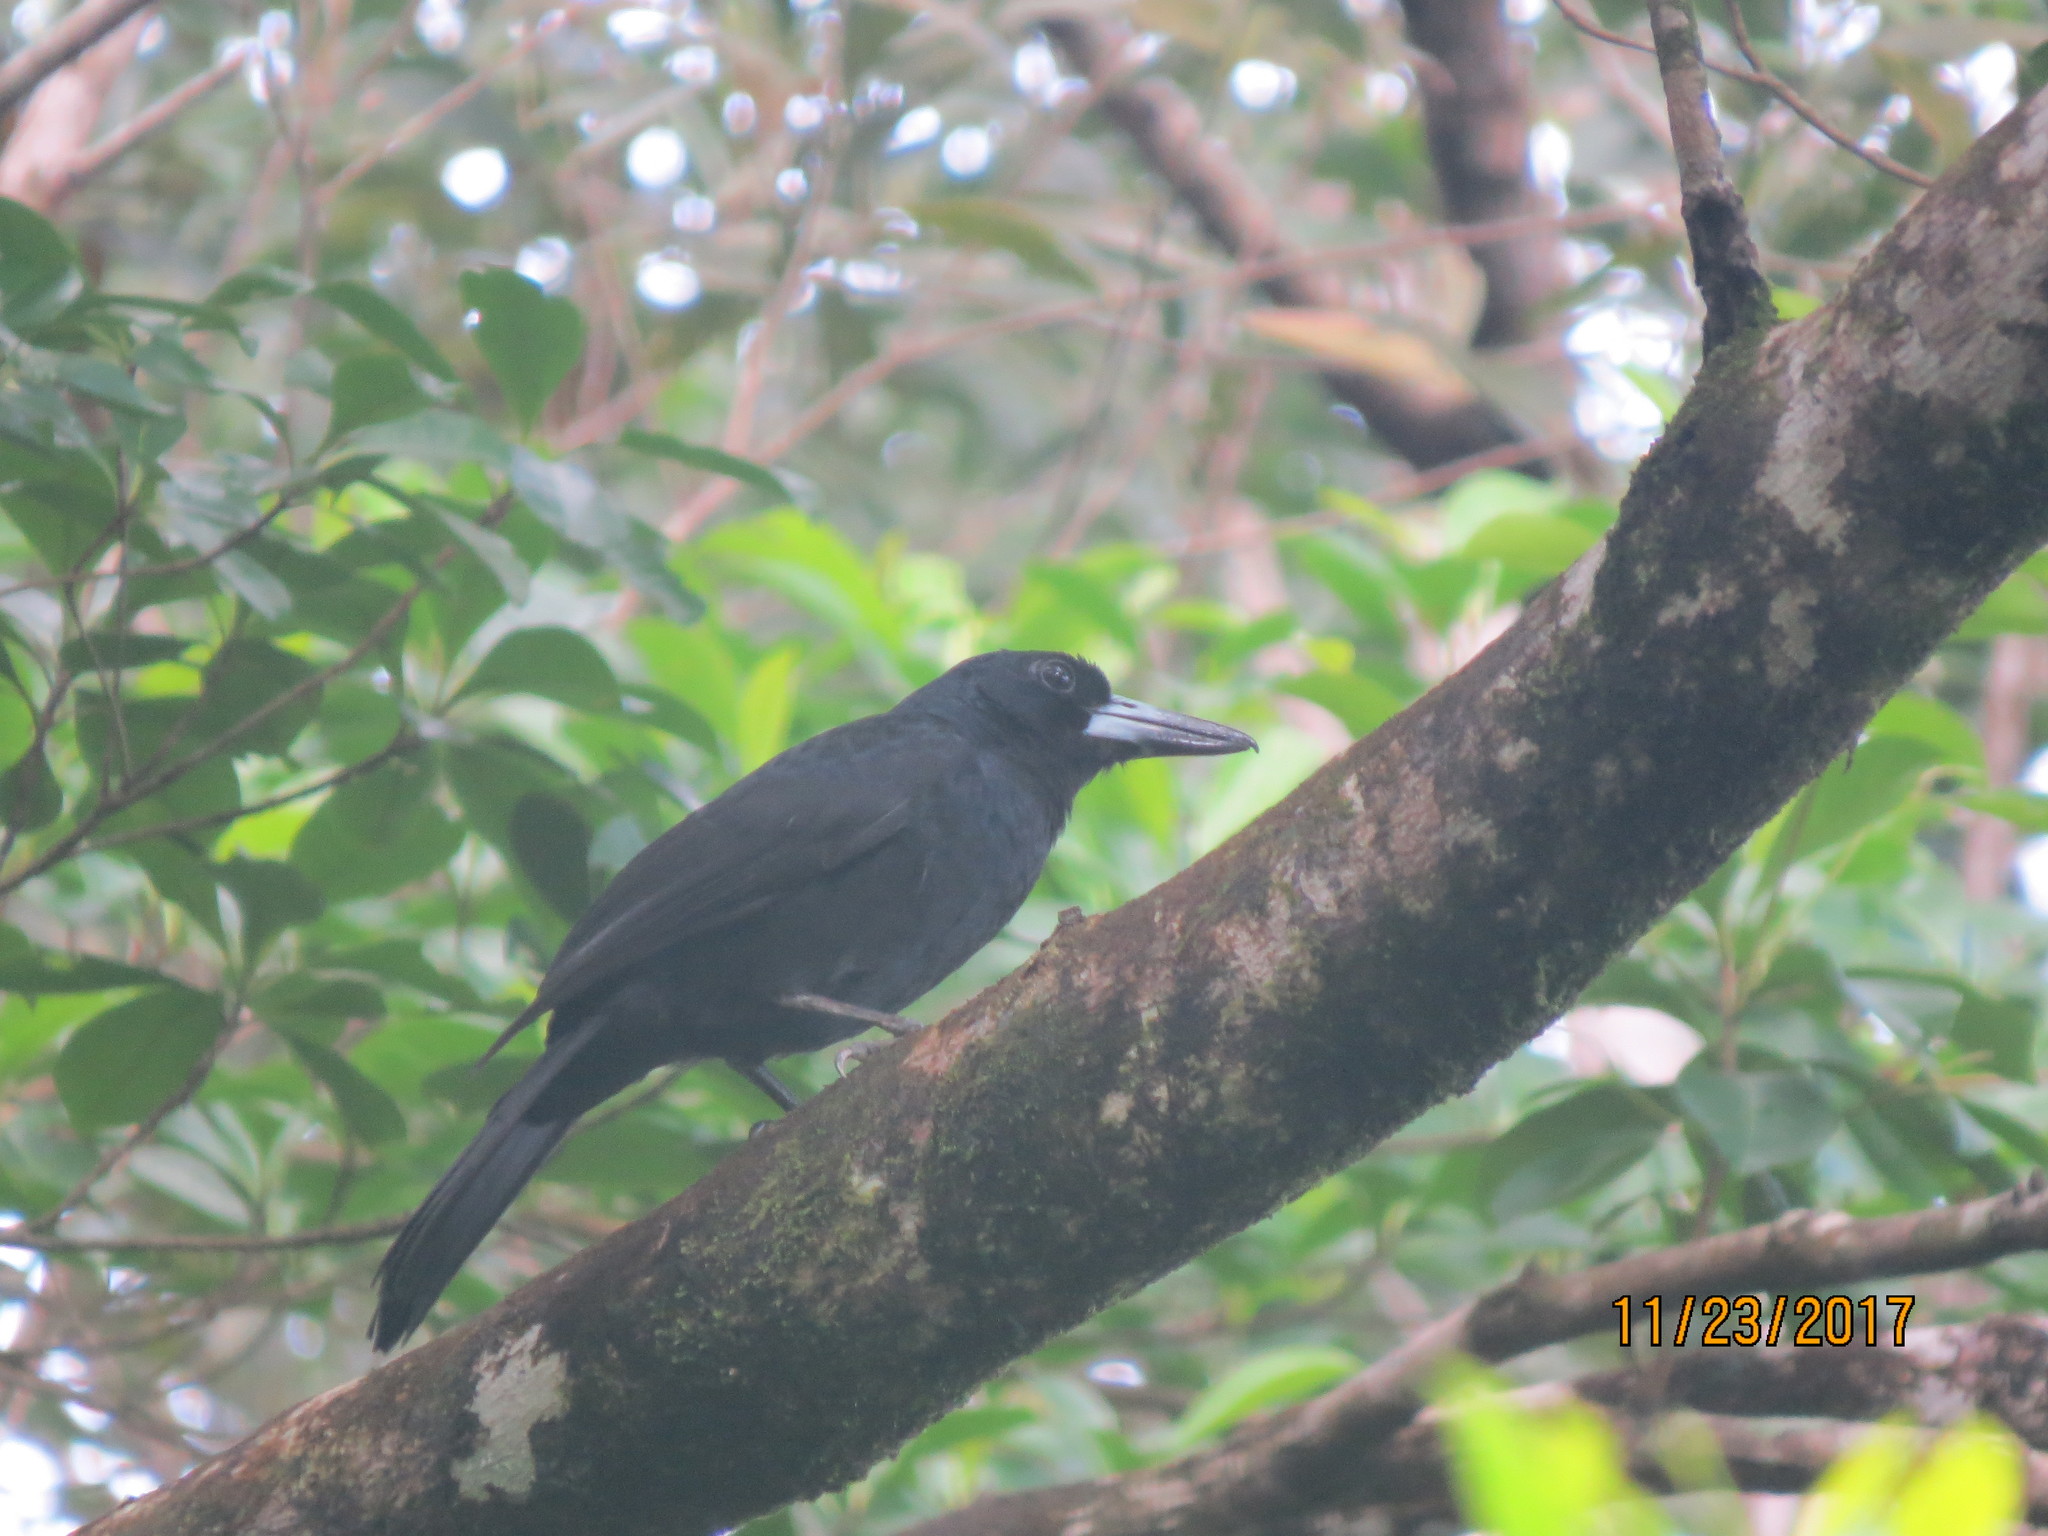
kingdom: Animalia
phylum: Chordata
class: Aves
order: Passeriformes
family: Artamidae
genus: Melloria
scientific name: Melloria quoyi
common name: Black butcherbird
